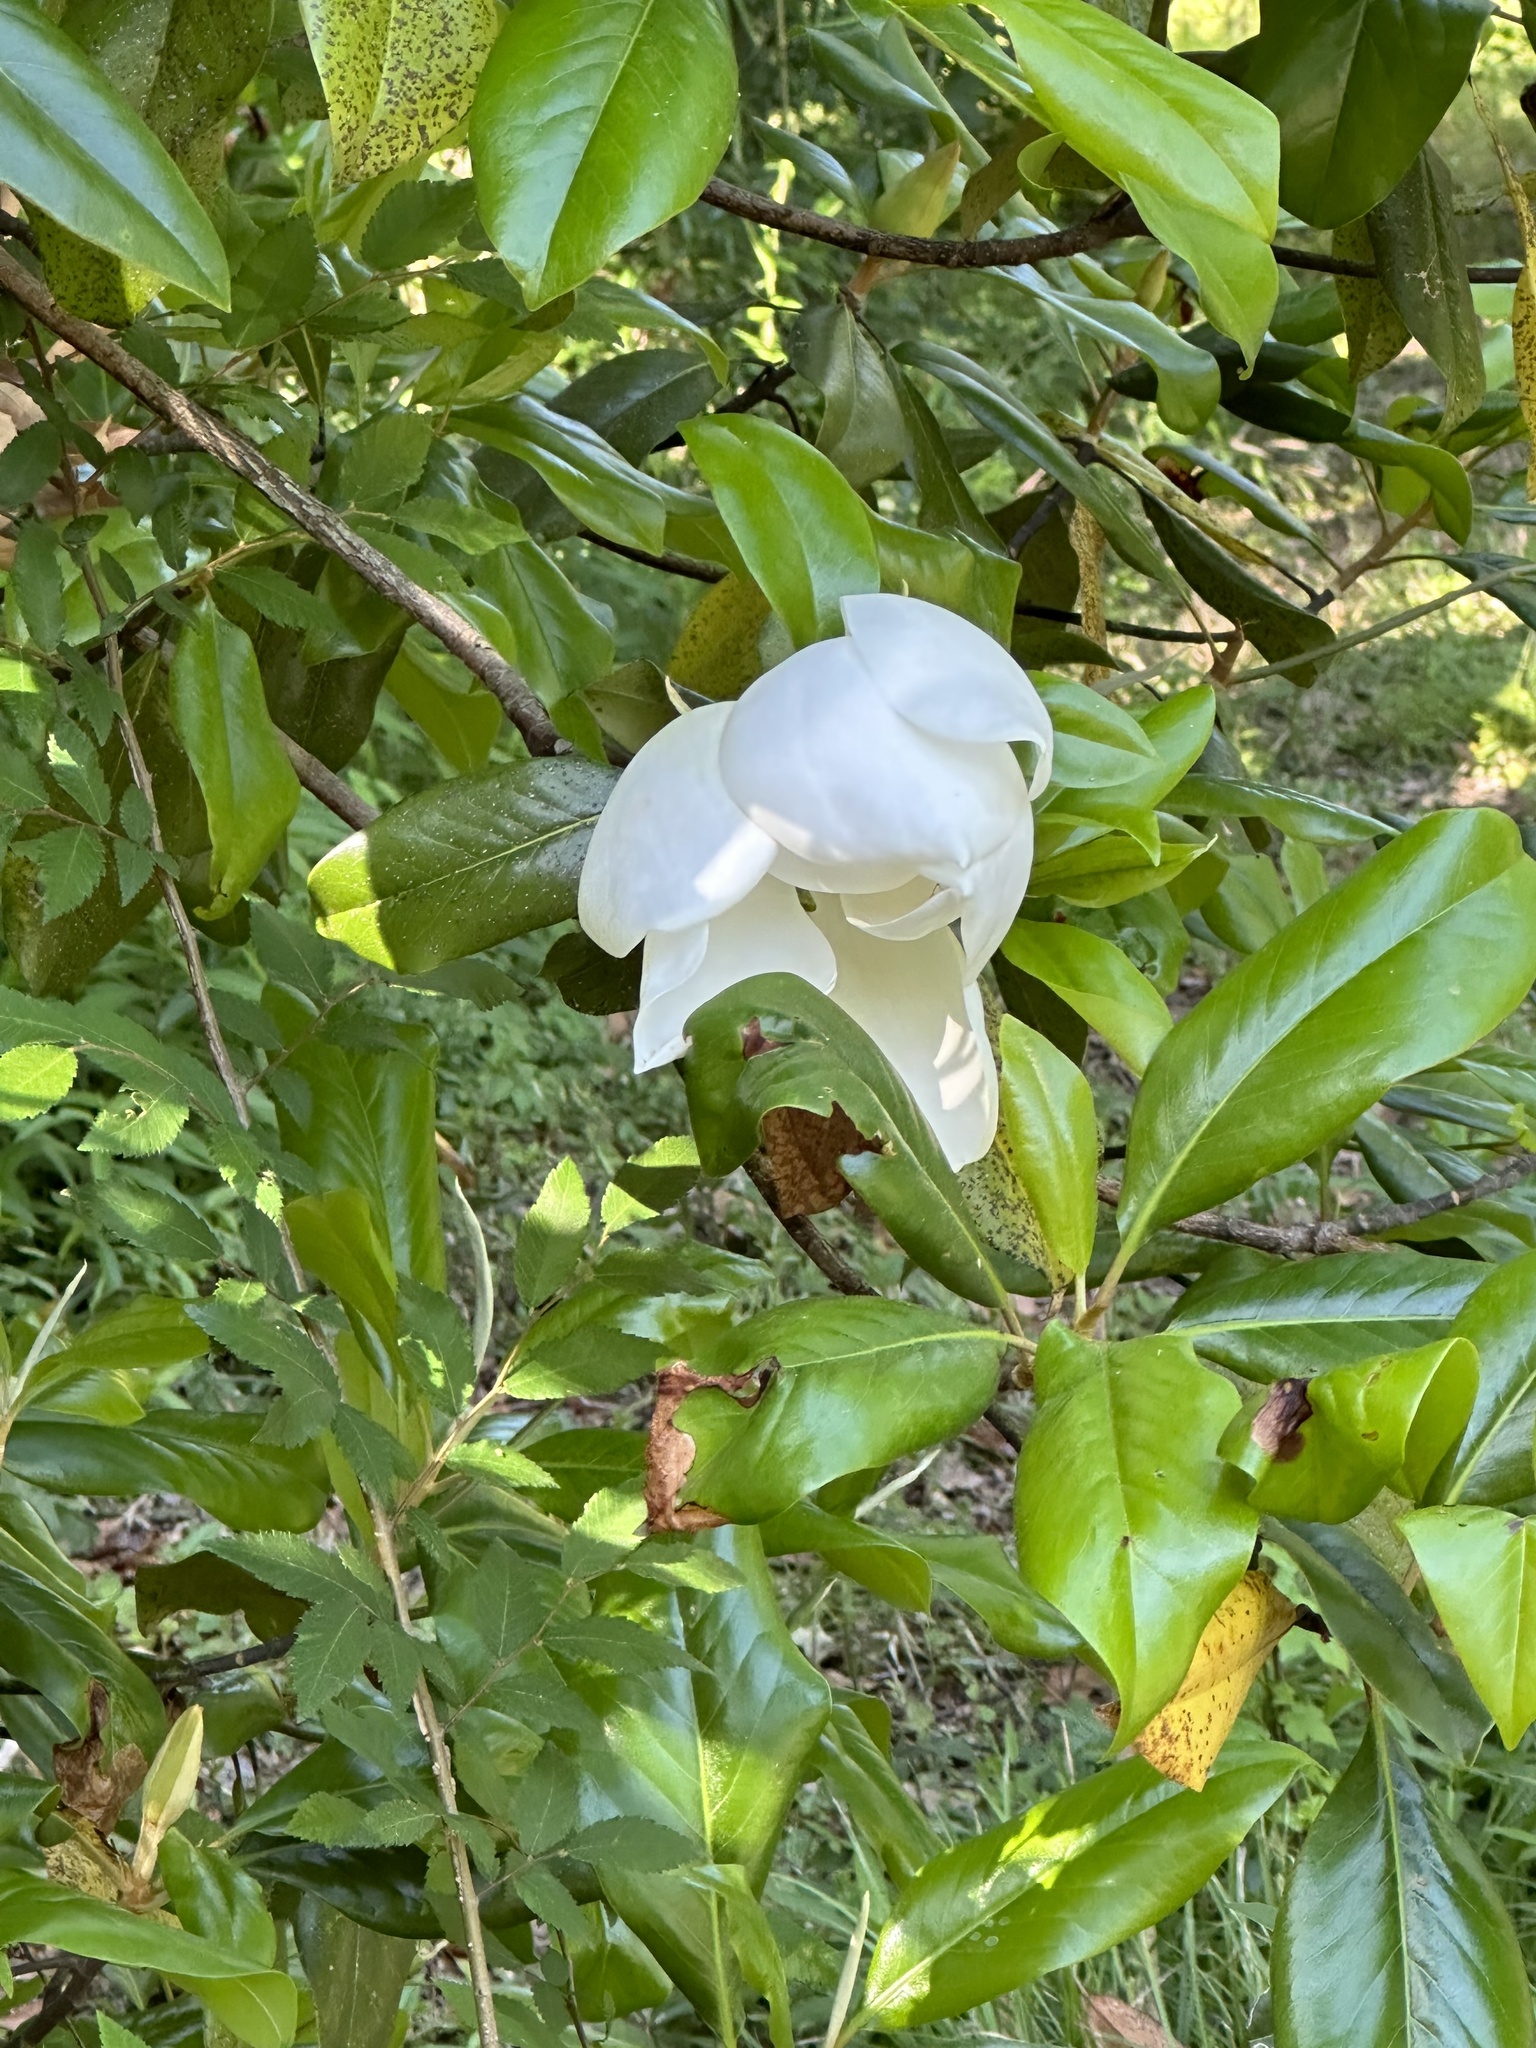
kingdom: Plantae
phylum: Tracheophyta
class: Magnoliopsida
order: Magnoliales
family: Magnoliaceae
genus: Magnolia
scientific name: Magnolia grandiflora
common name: Southern magnolia
